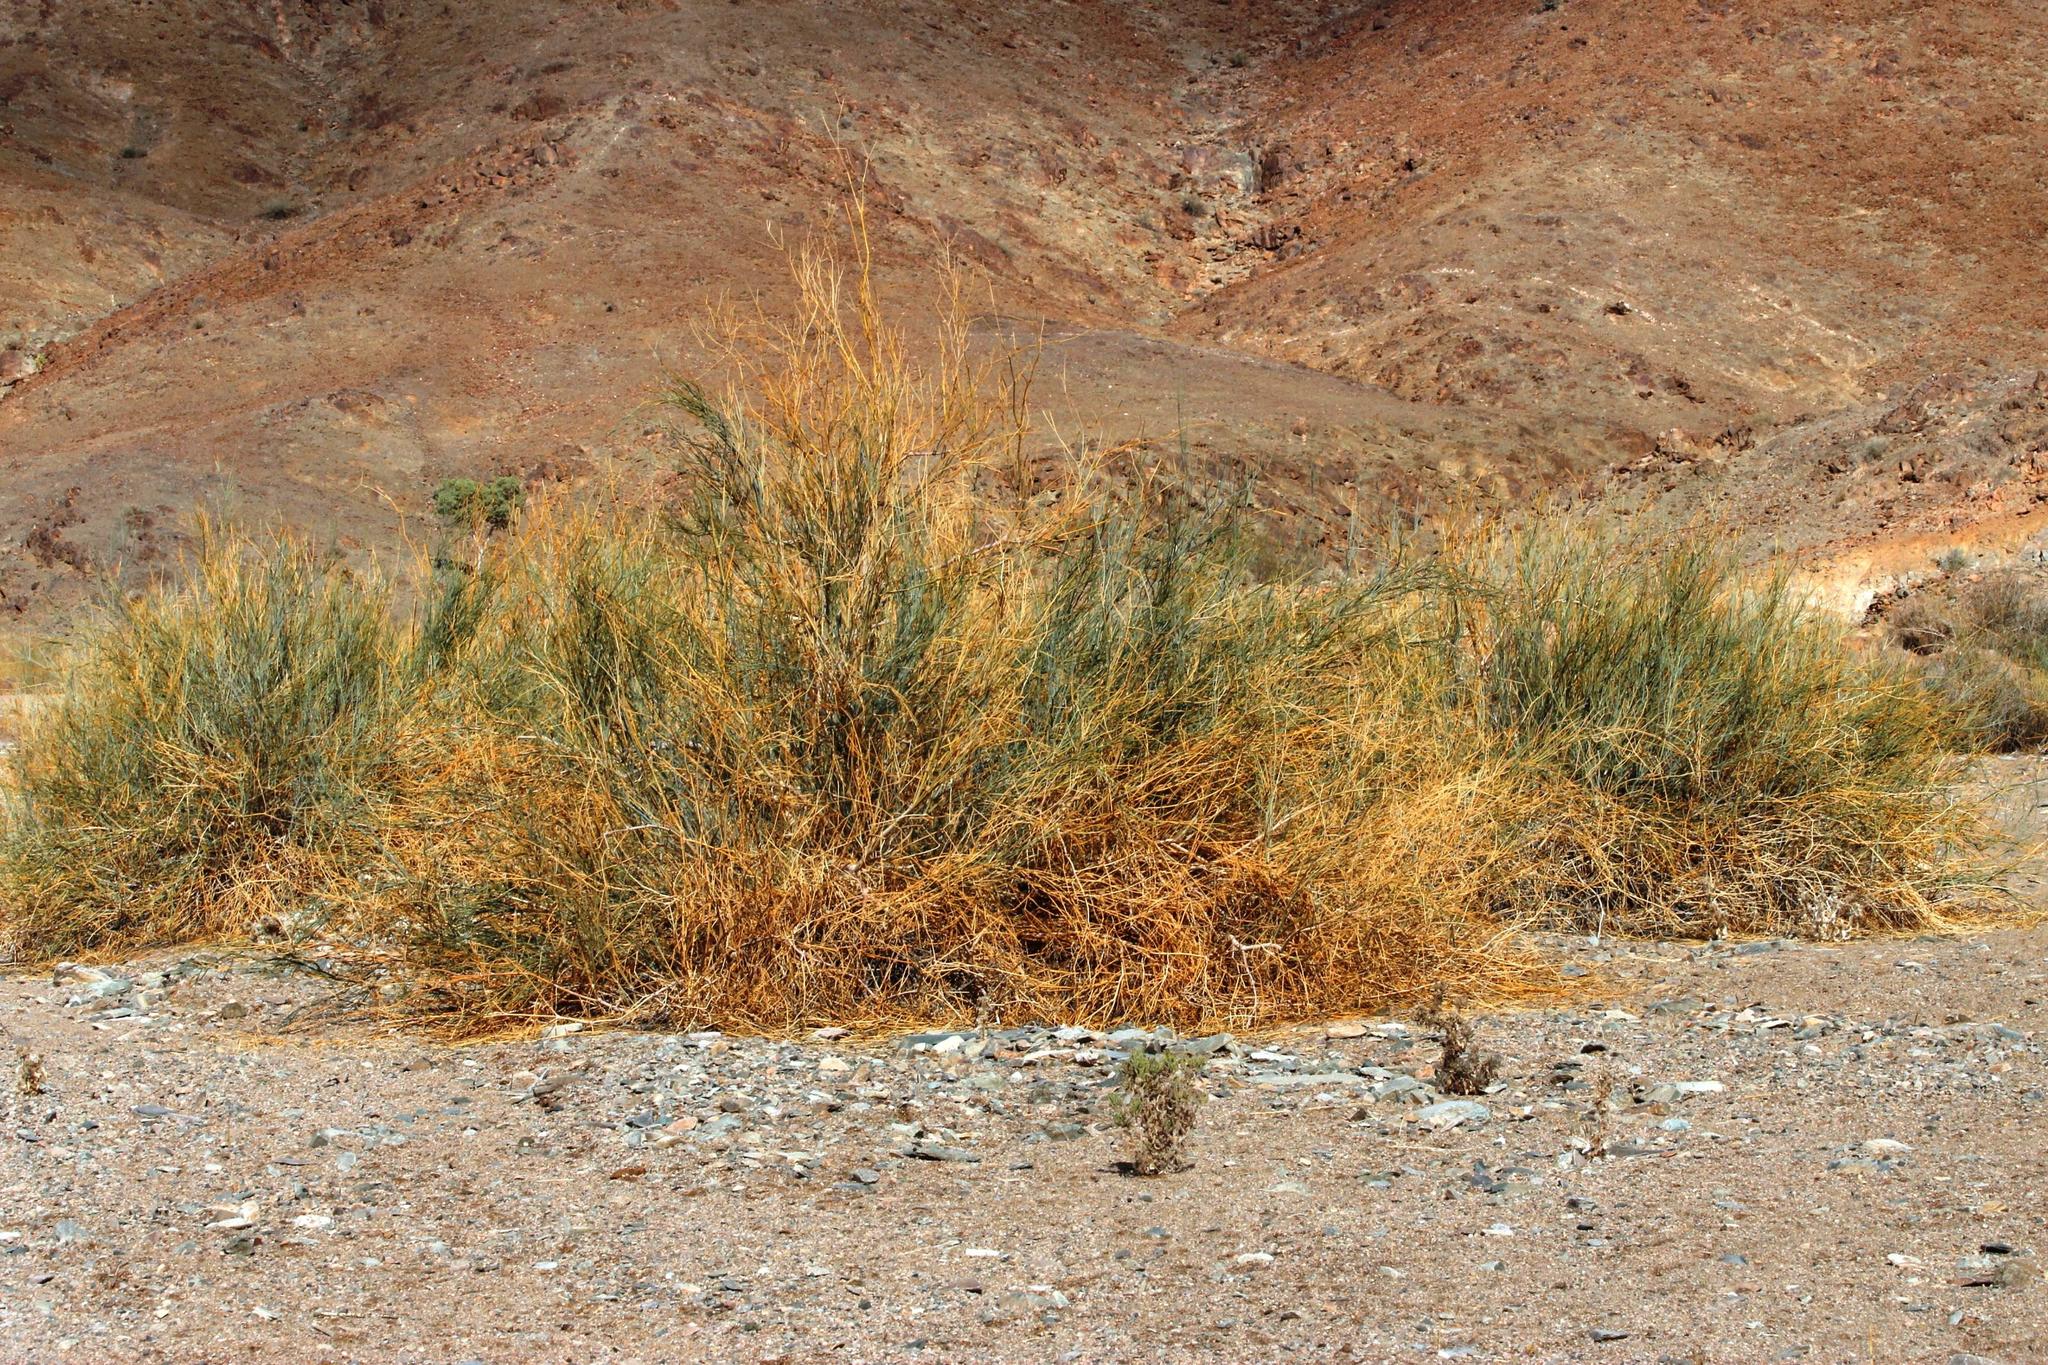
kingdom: Plantae
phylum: Tracheophyta
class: Magnoliopsida
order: Zygophyllales
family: Zygophyllaceae
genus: Sisyndite
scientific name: Sisyndite spartea
